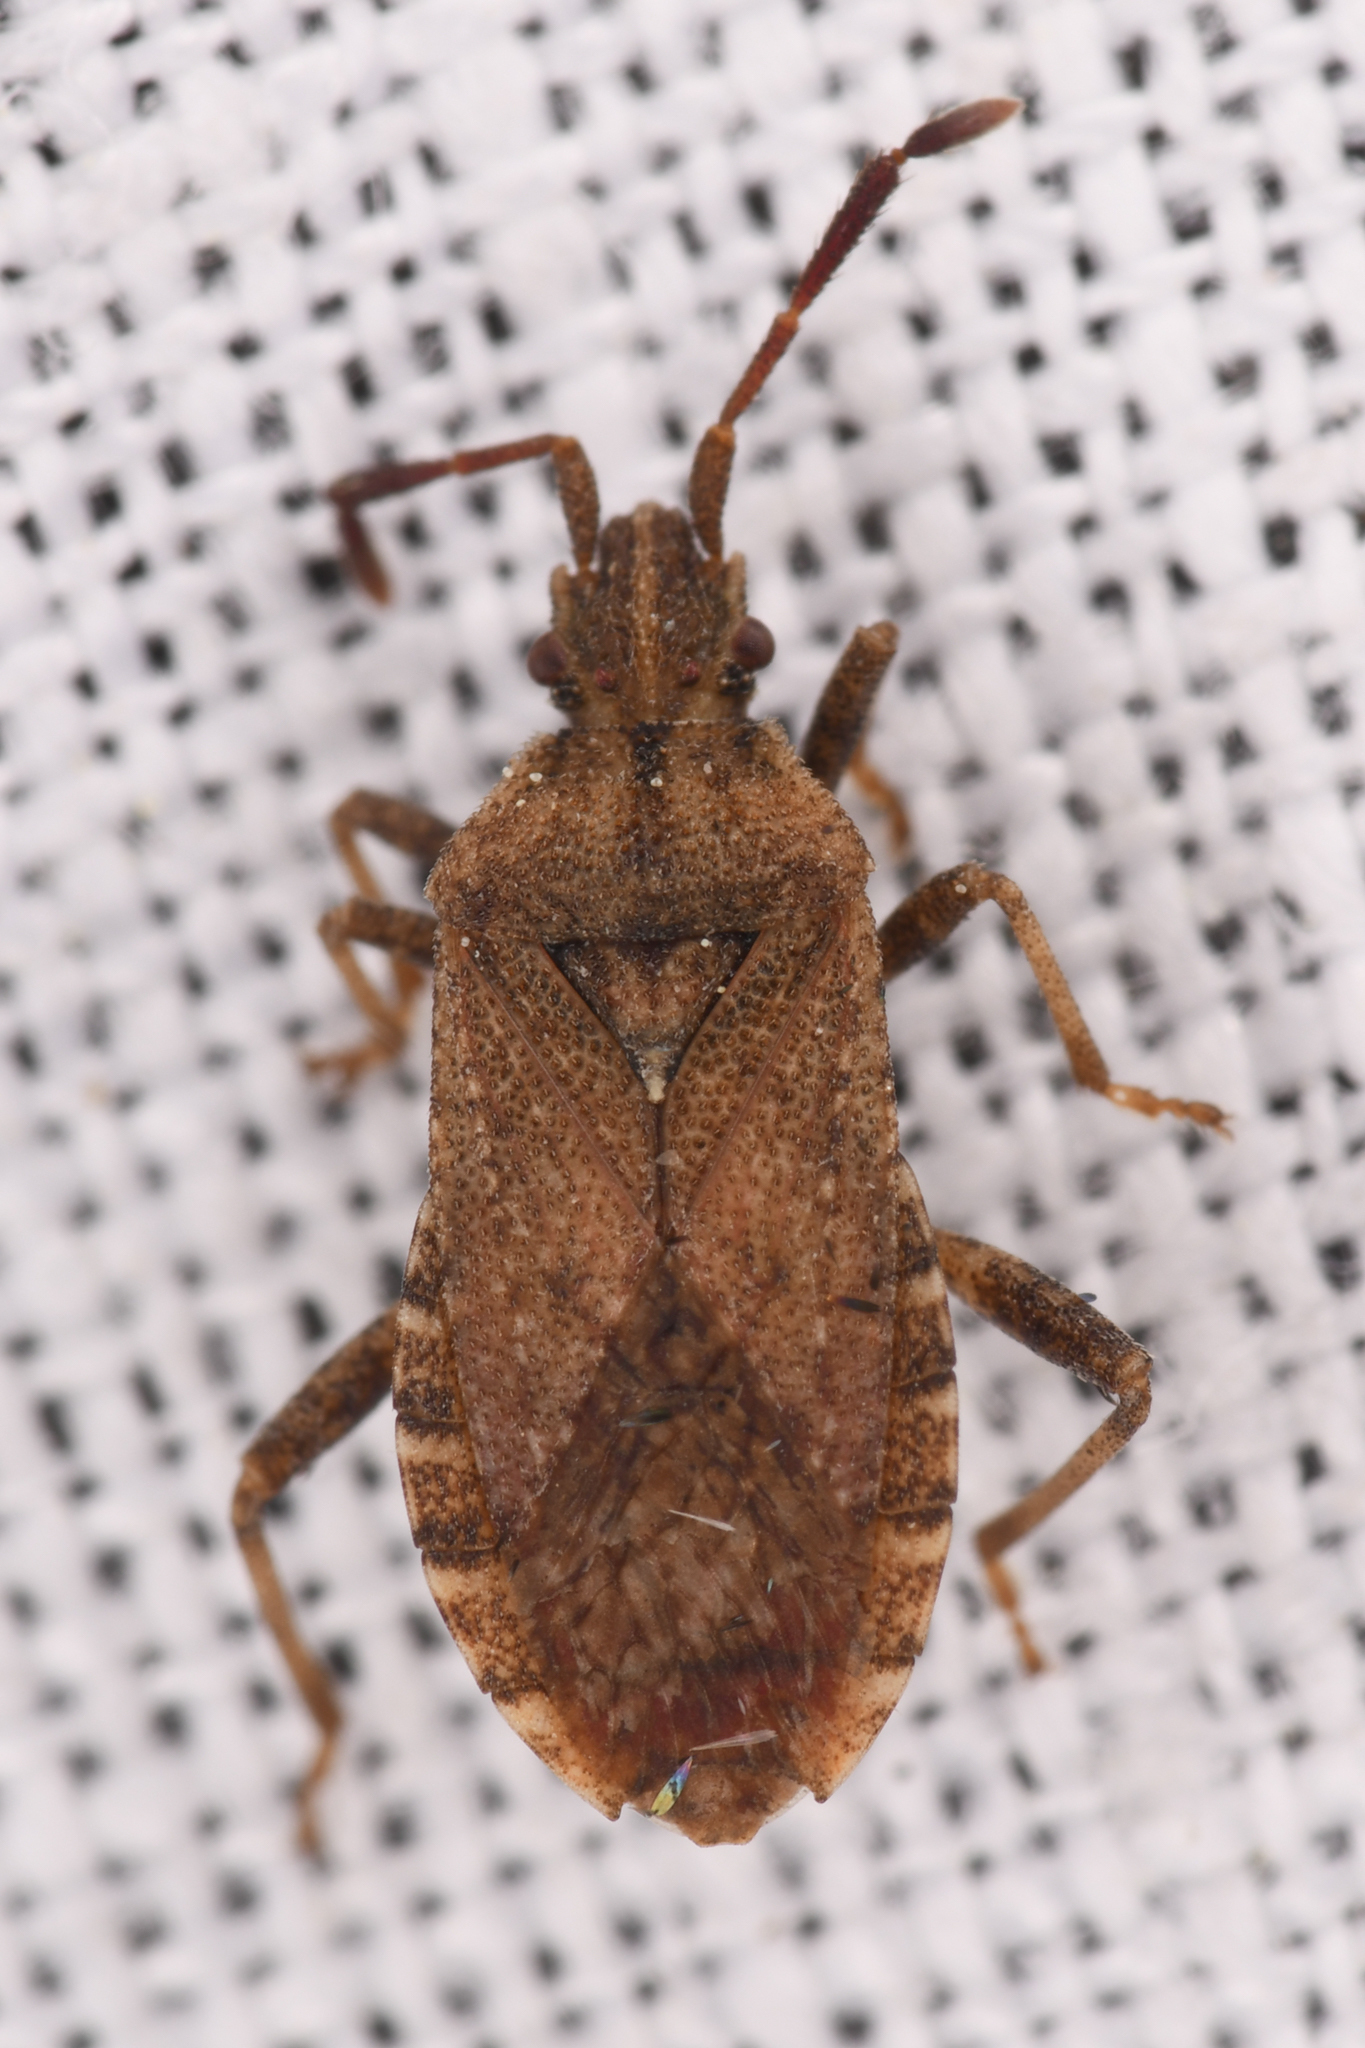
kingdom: Animalia
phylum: Arthropoda
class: Insecta
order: Hemiptera
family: Coreidae
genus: Ceraleptus
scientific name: Ceraleptus pacificus
